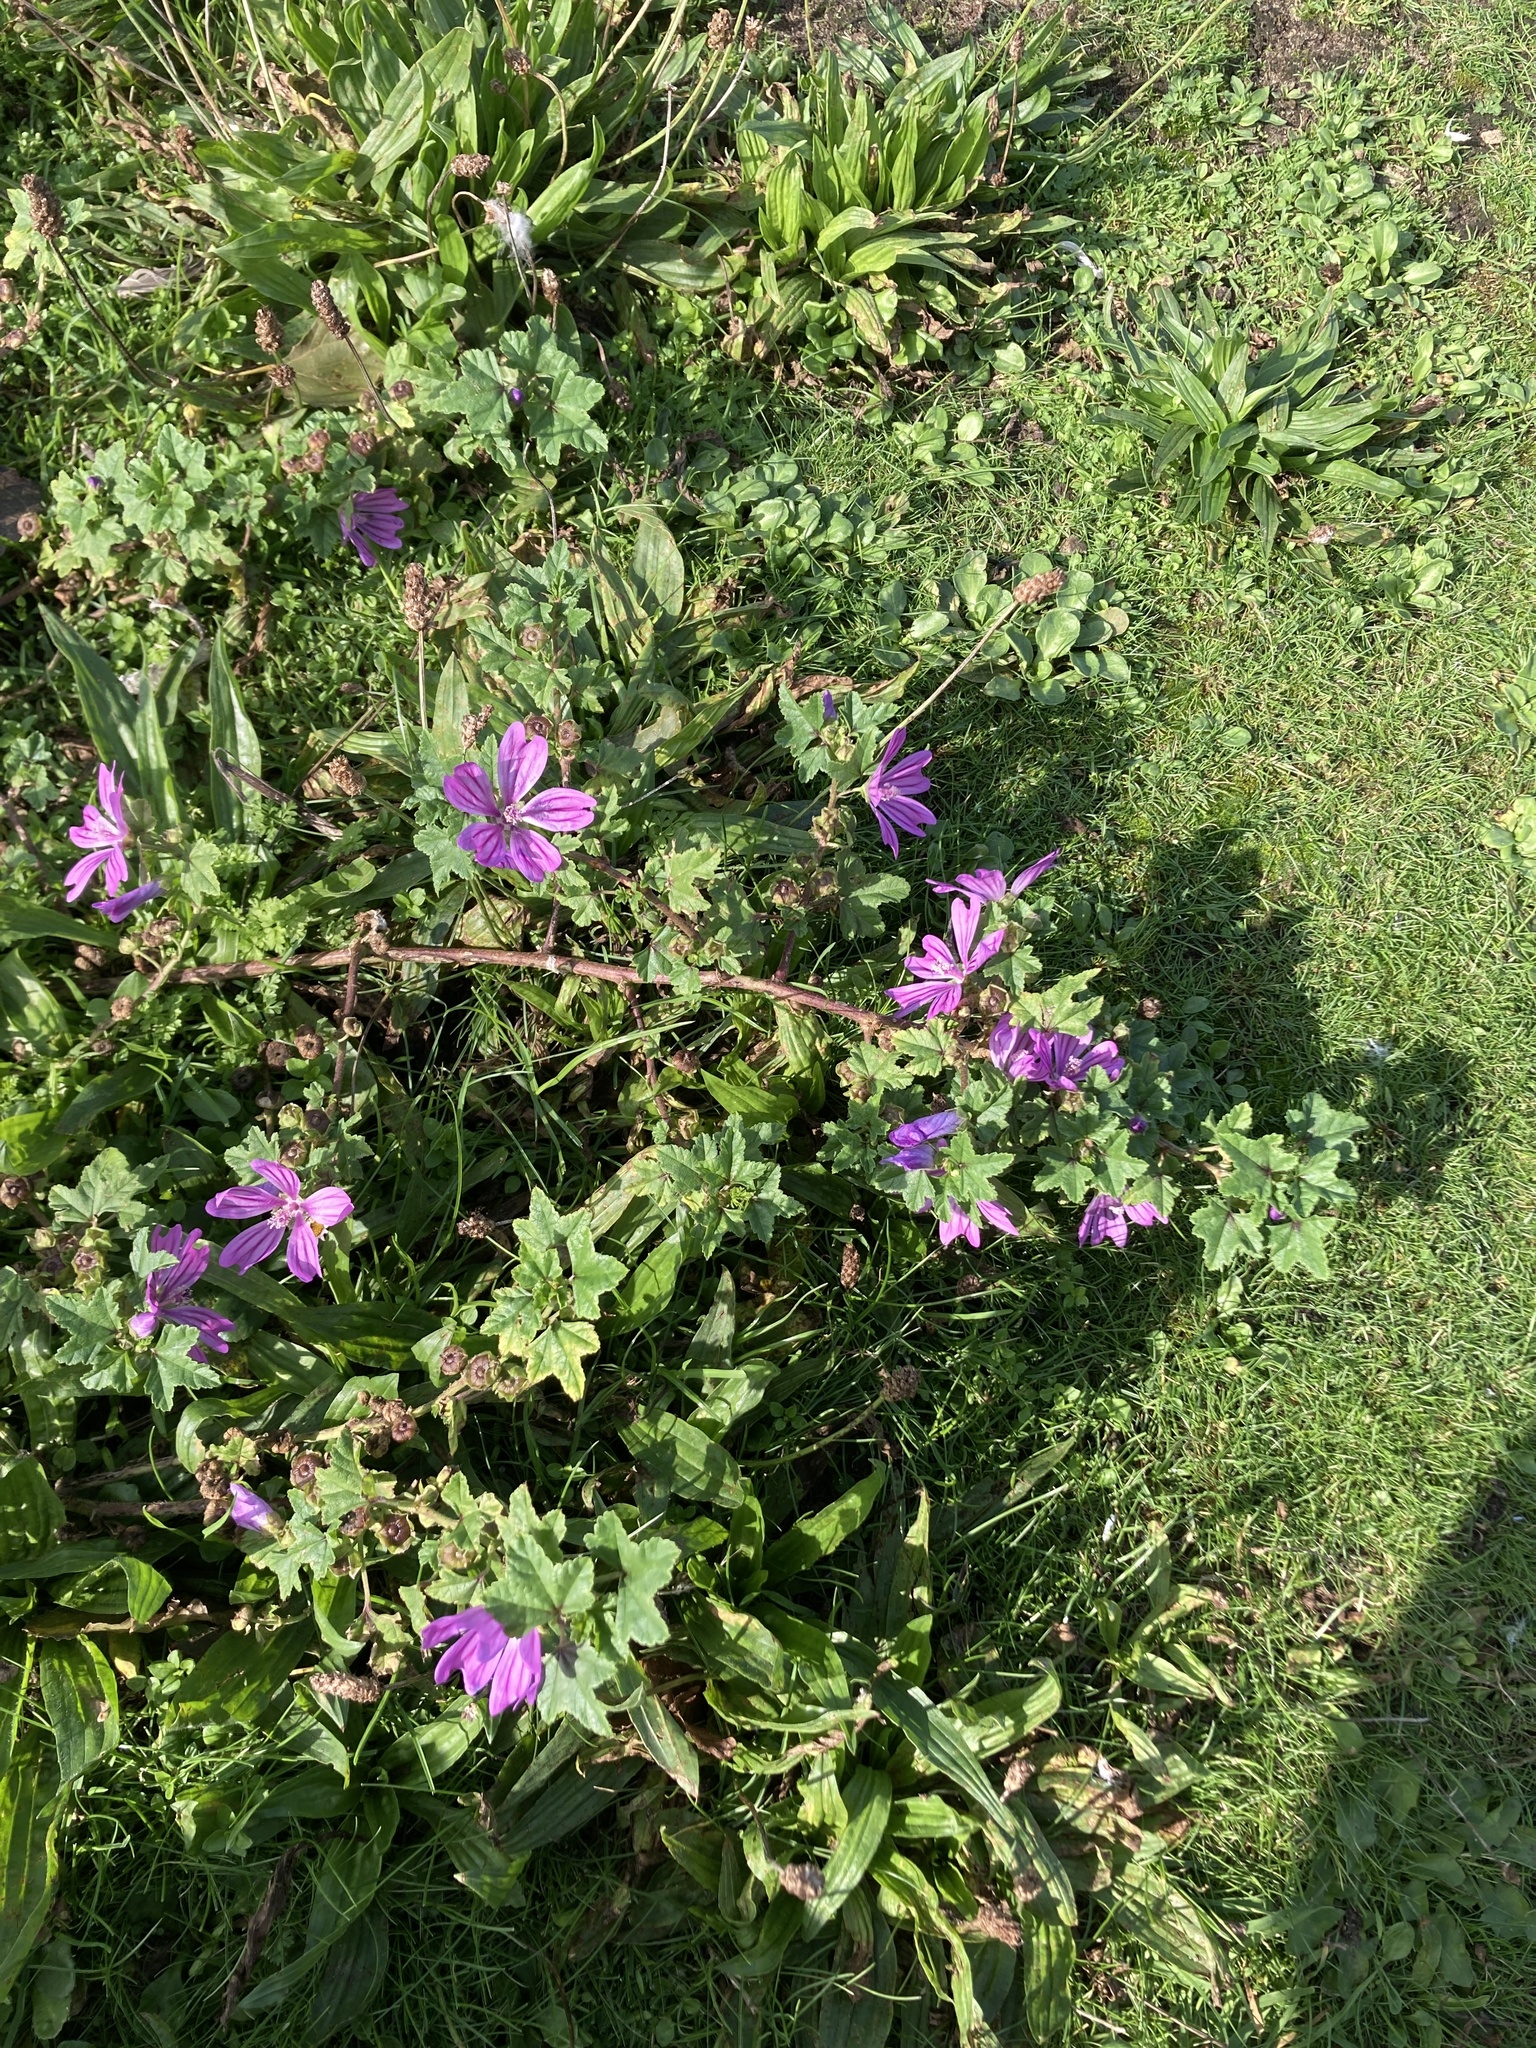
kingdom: Plantae
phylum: Tracheophyta
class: Magnoliopsida
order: Malvales
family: Malvaceae
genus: Malva
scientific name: Malva sylvestris
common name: Common mallow
